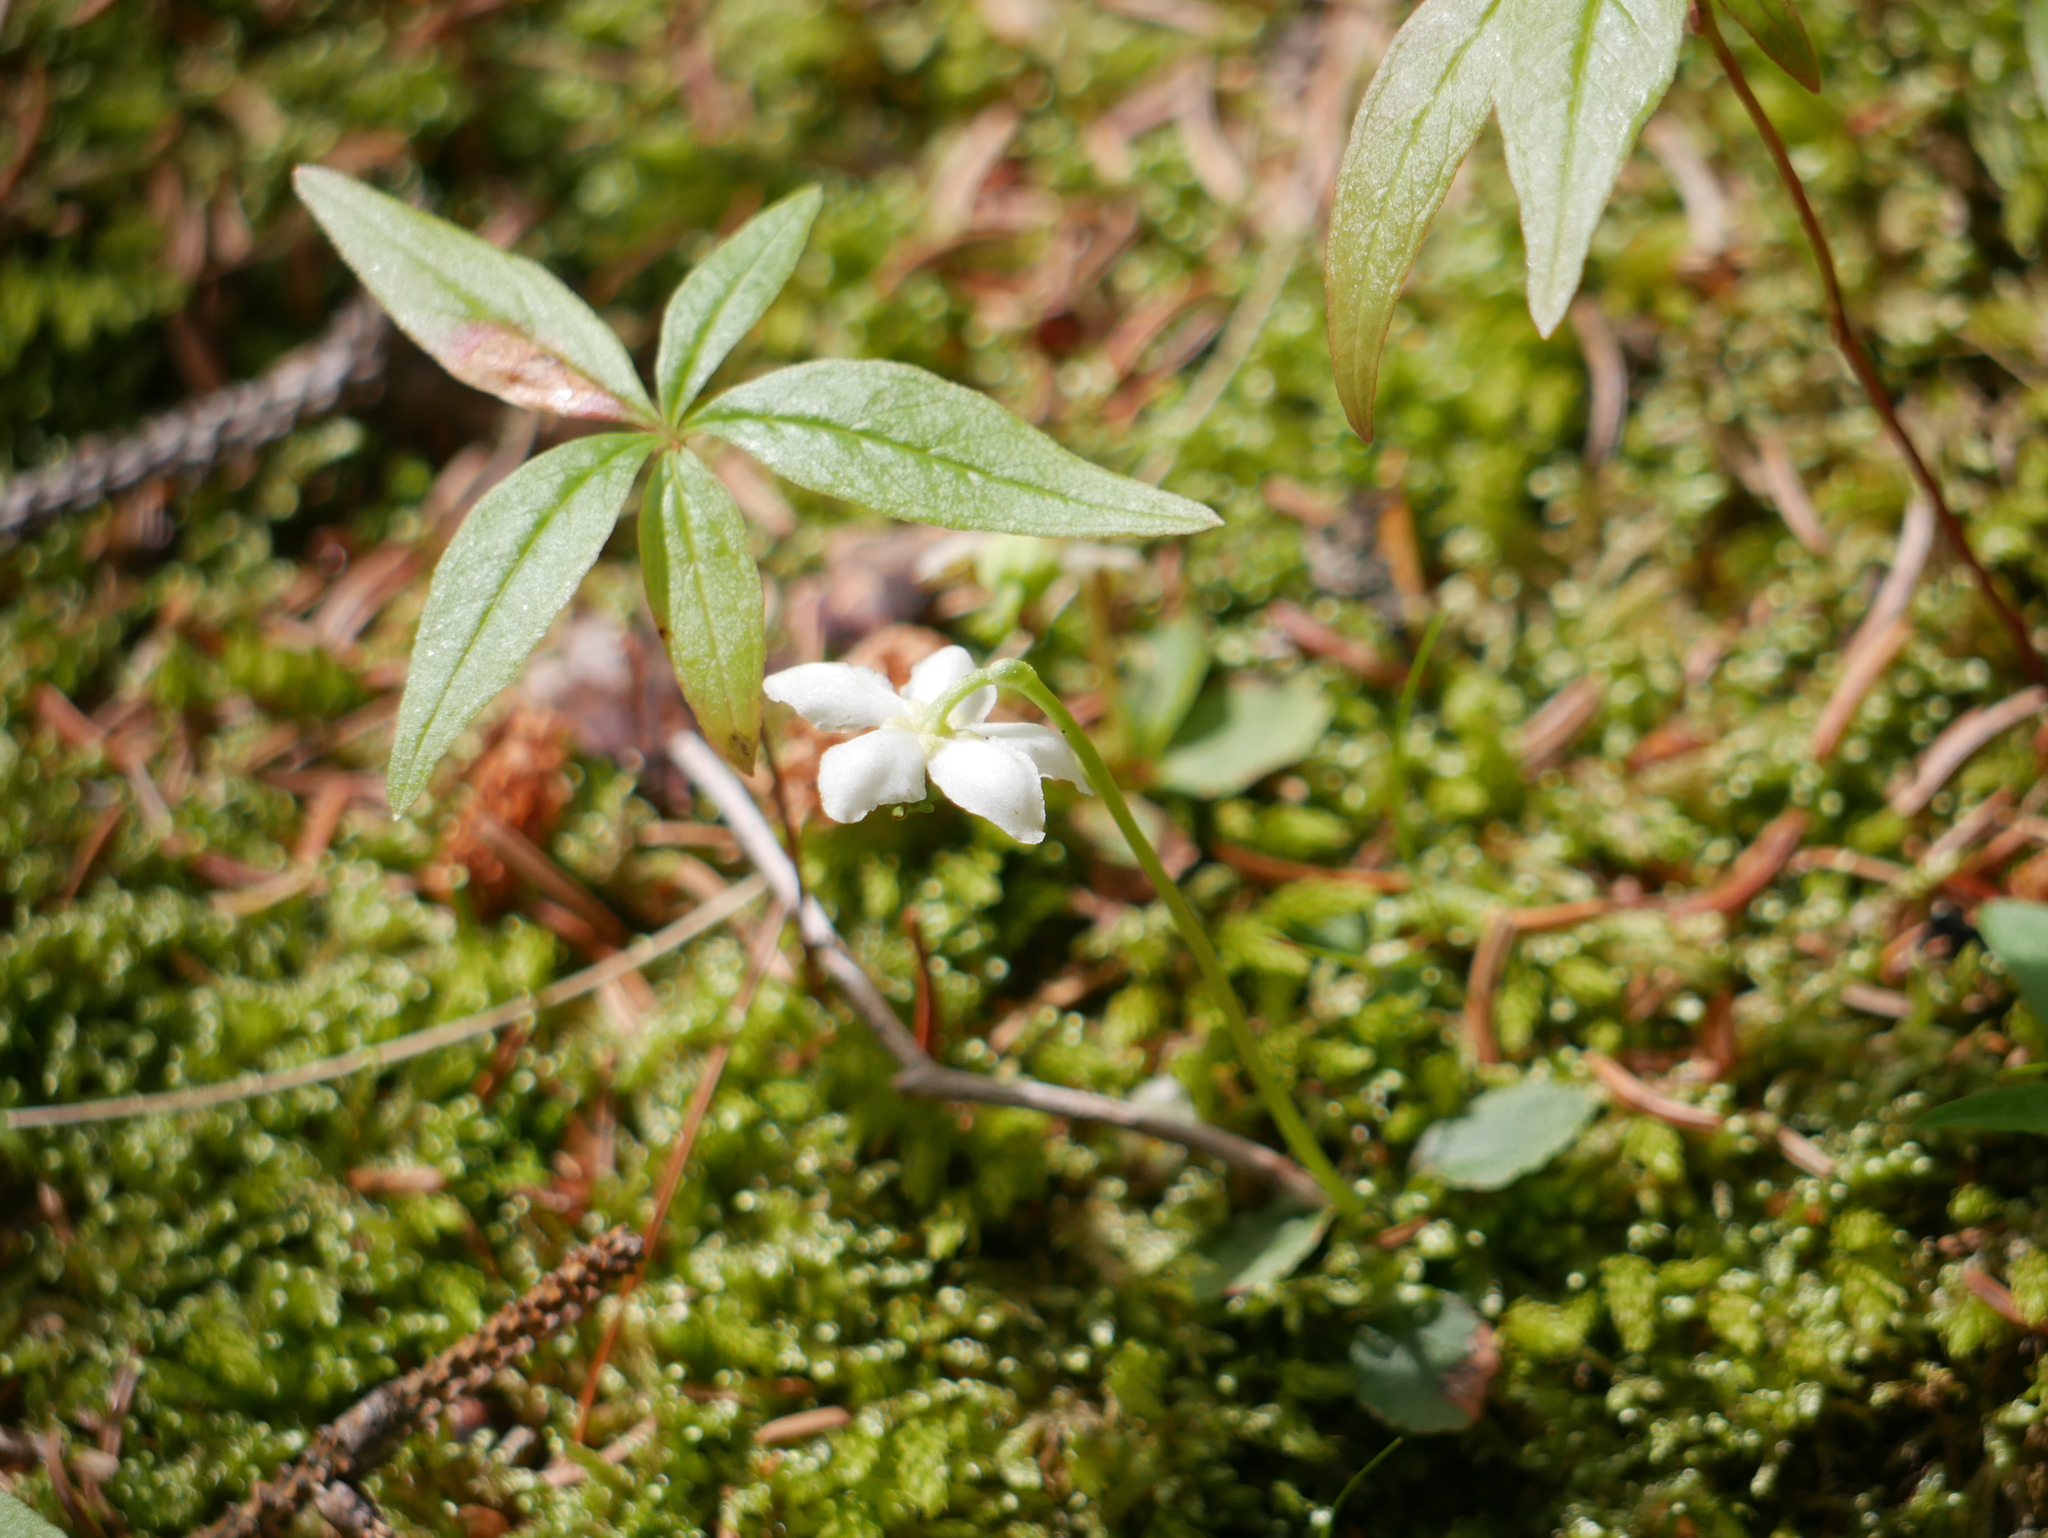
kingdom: Plantae
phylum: Tracheophyta
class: Magnoliopsida
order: Ericales
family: Ericaceae
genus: Moneses
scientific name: Moneses uniflora
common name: One-flowered wintergreen
